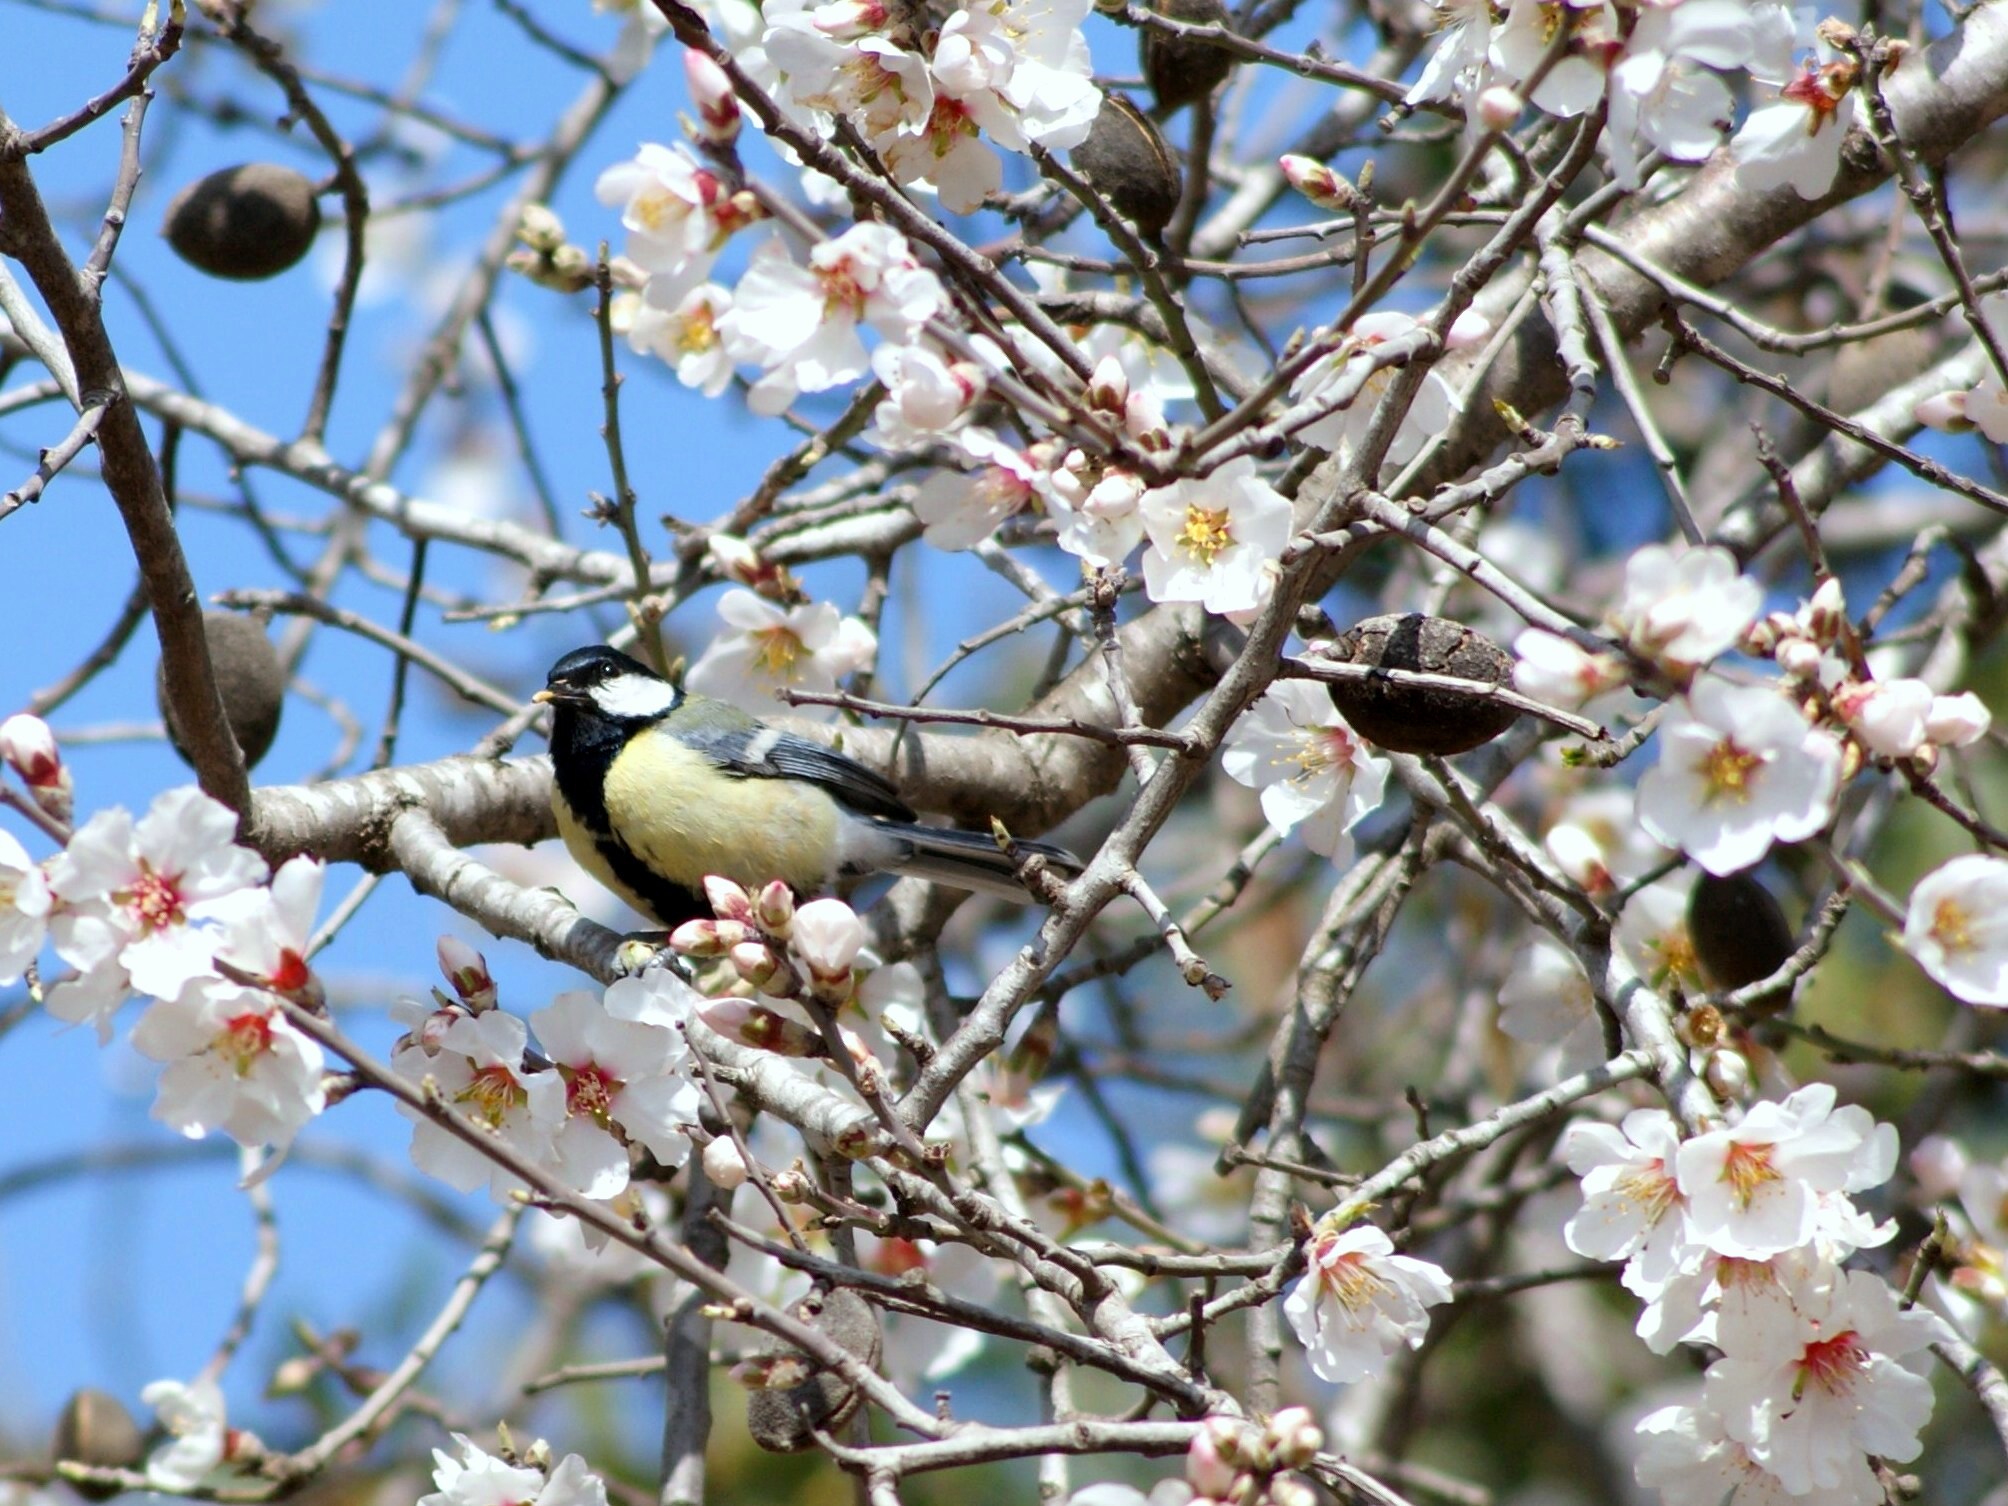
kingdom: Animalia
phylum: Chordata
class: Aves
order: Passeriformes
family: Paridae
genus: Parus
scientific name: Parus major
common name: Great tit
